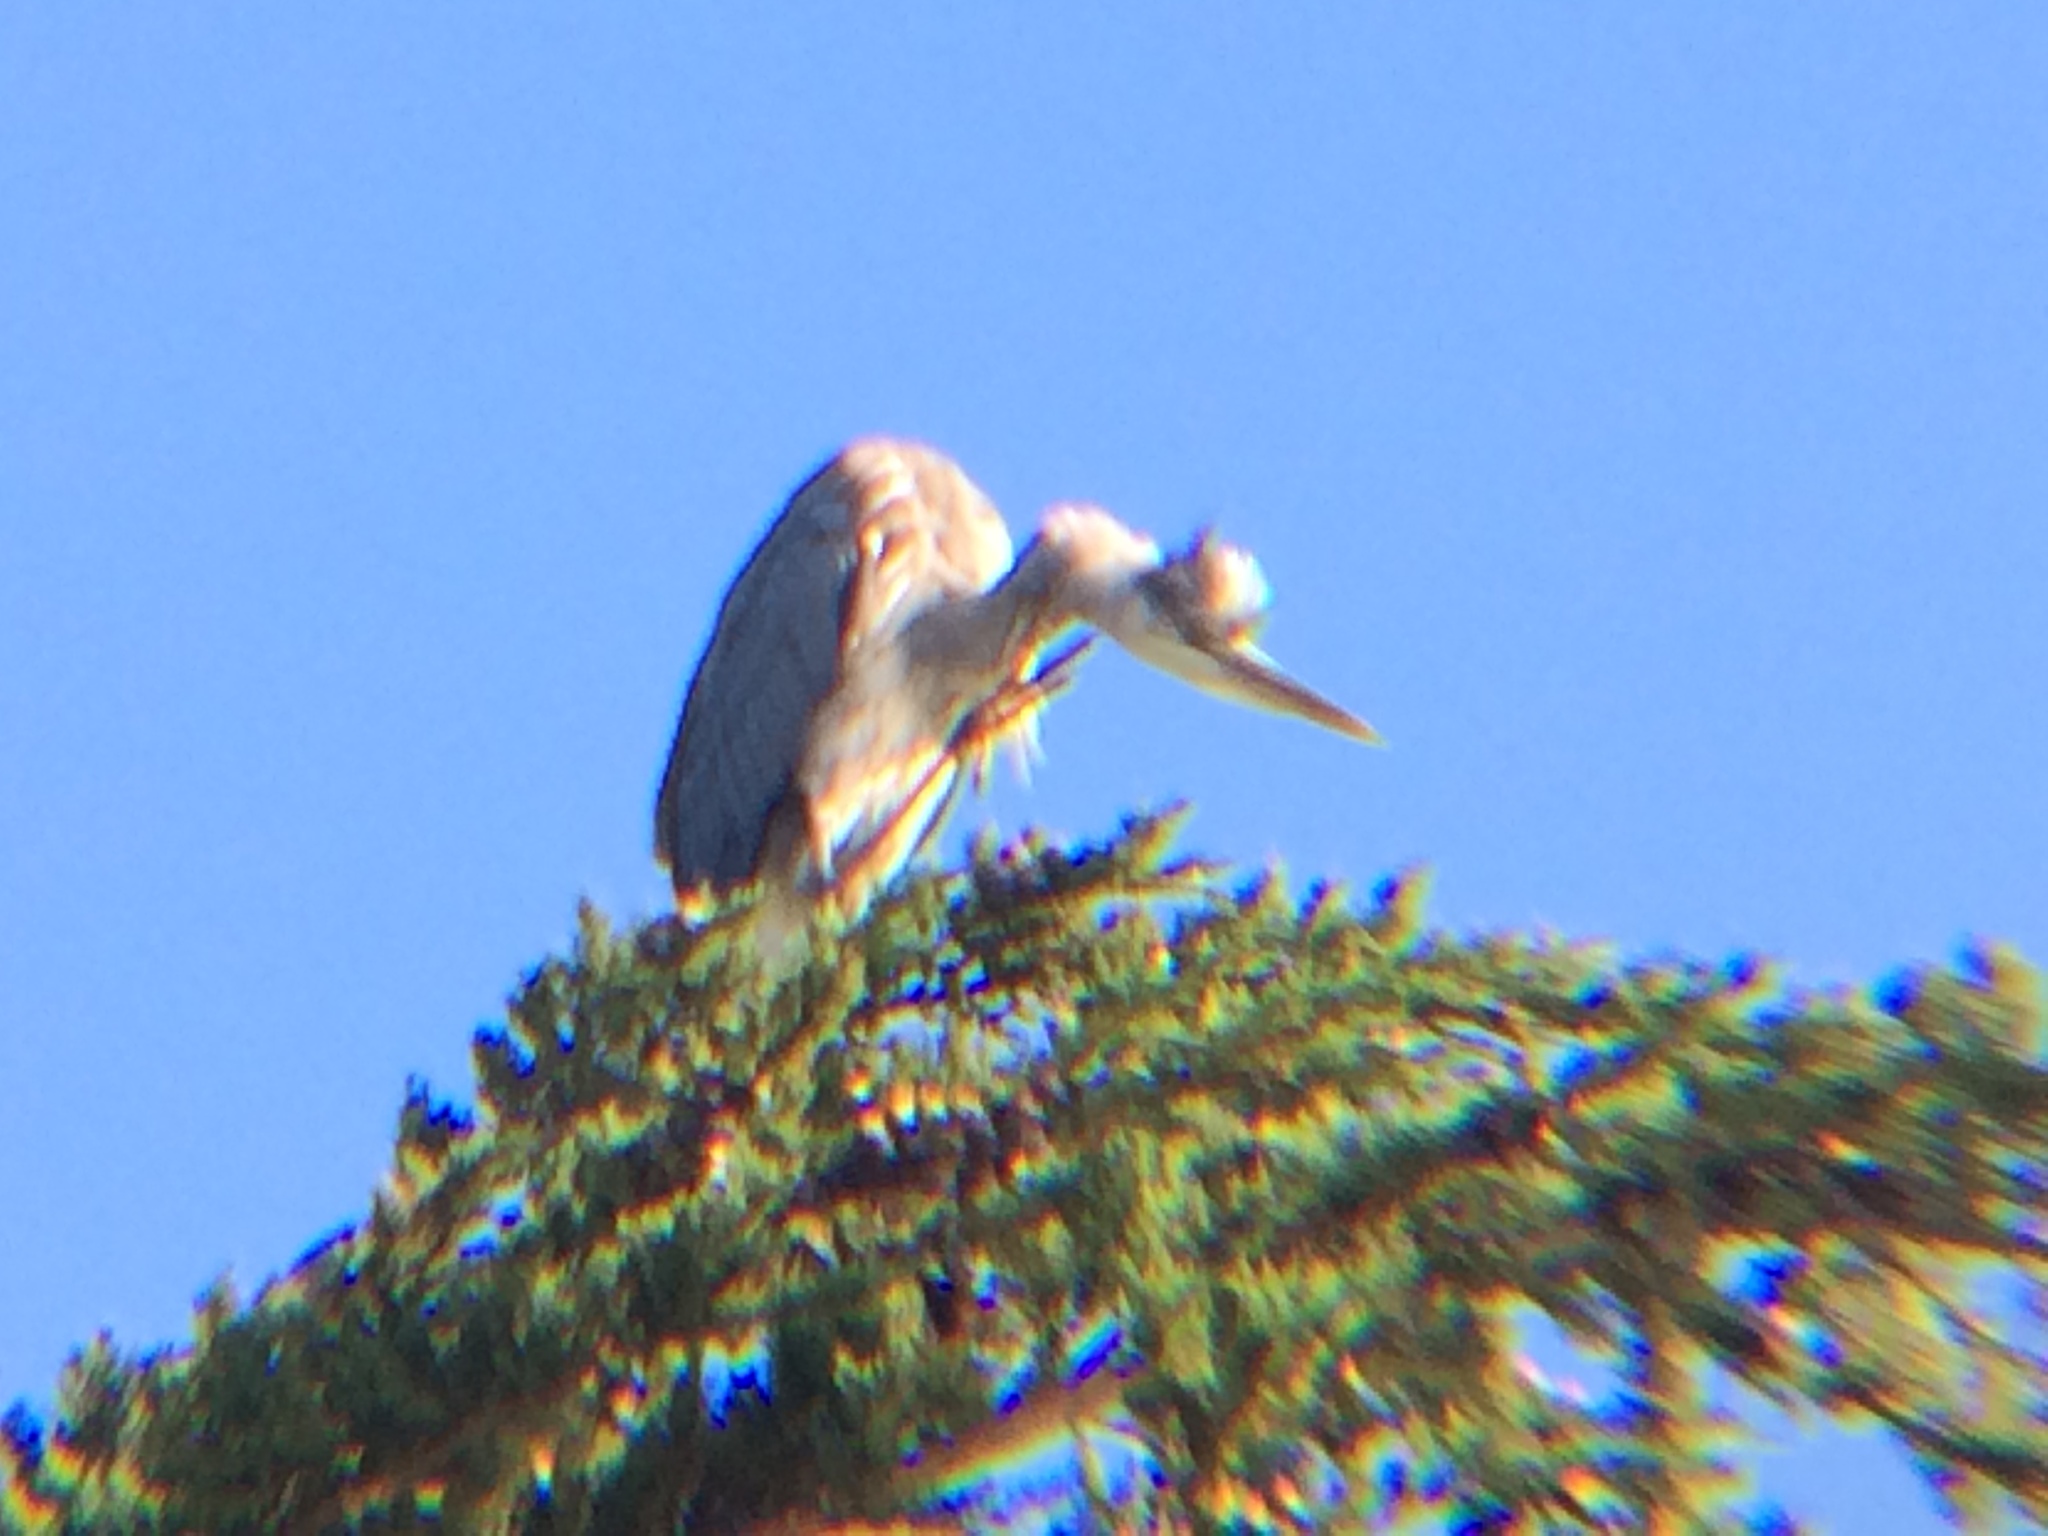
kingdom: Animalia
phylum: Chordata
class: Aves
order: Pelecaniformes
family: Ardeidae
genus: Ardea
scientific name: Ardea herodias
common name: Great blue heron
